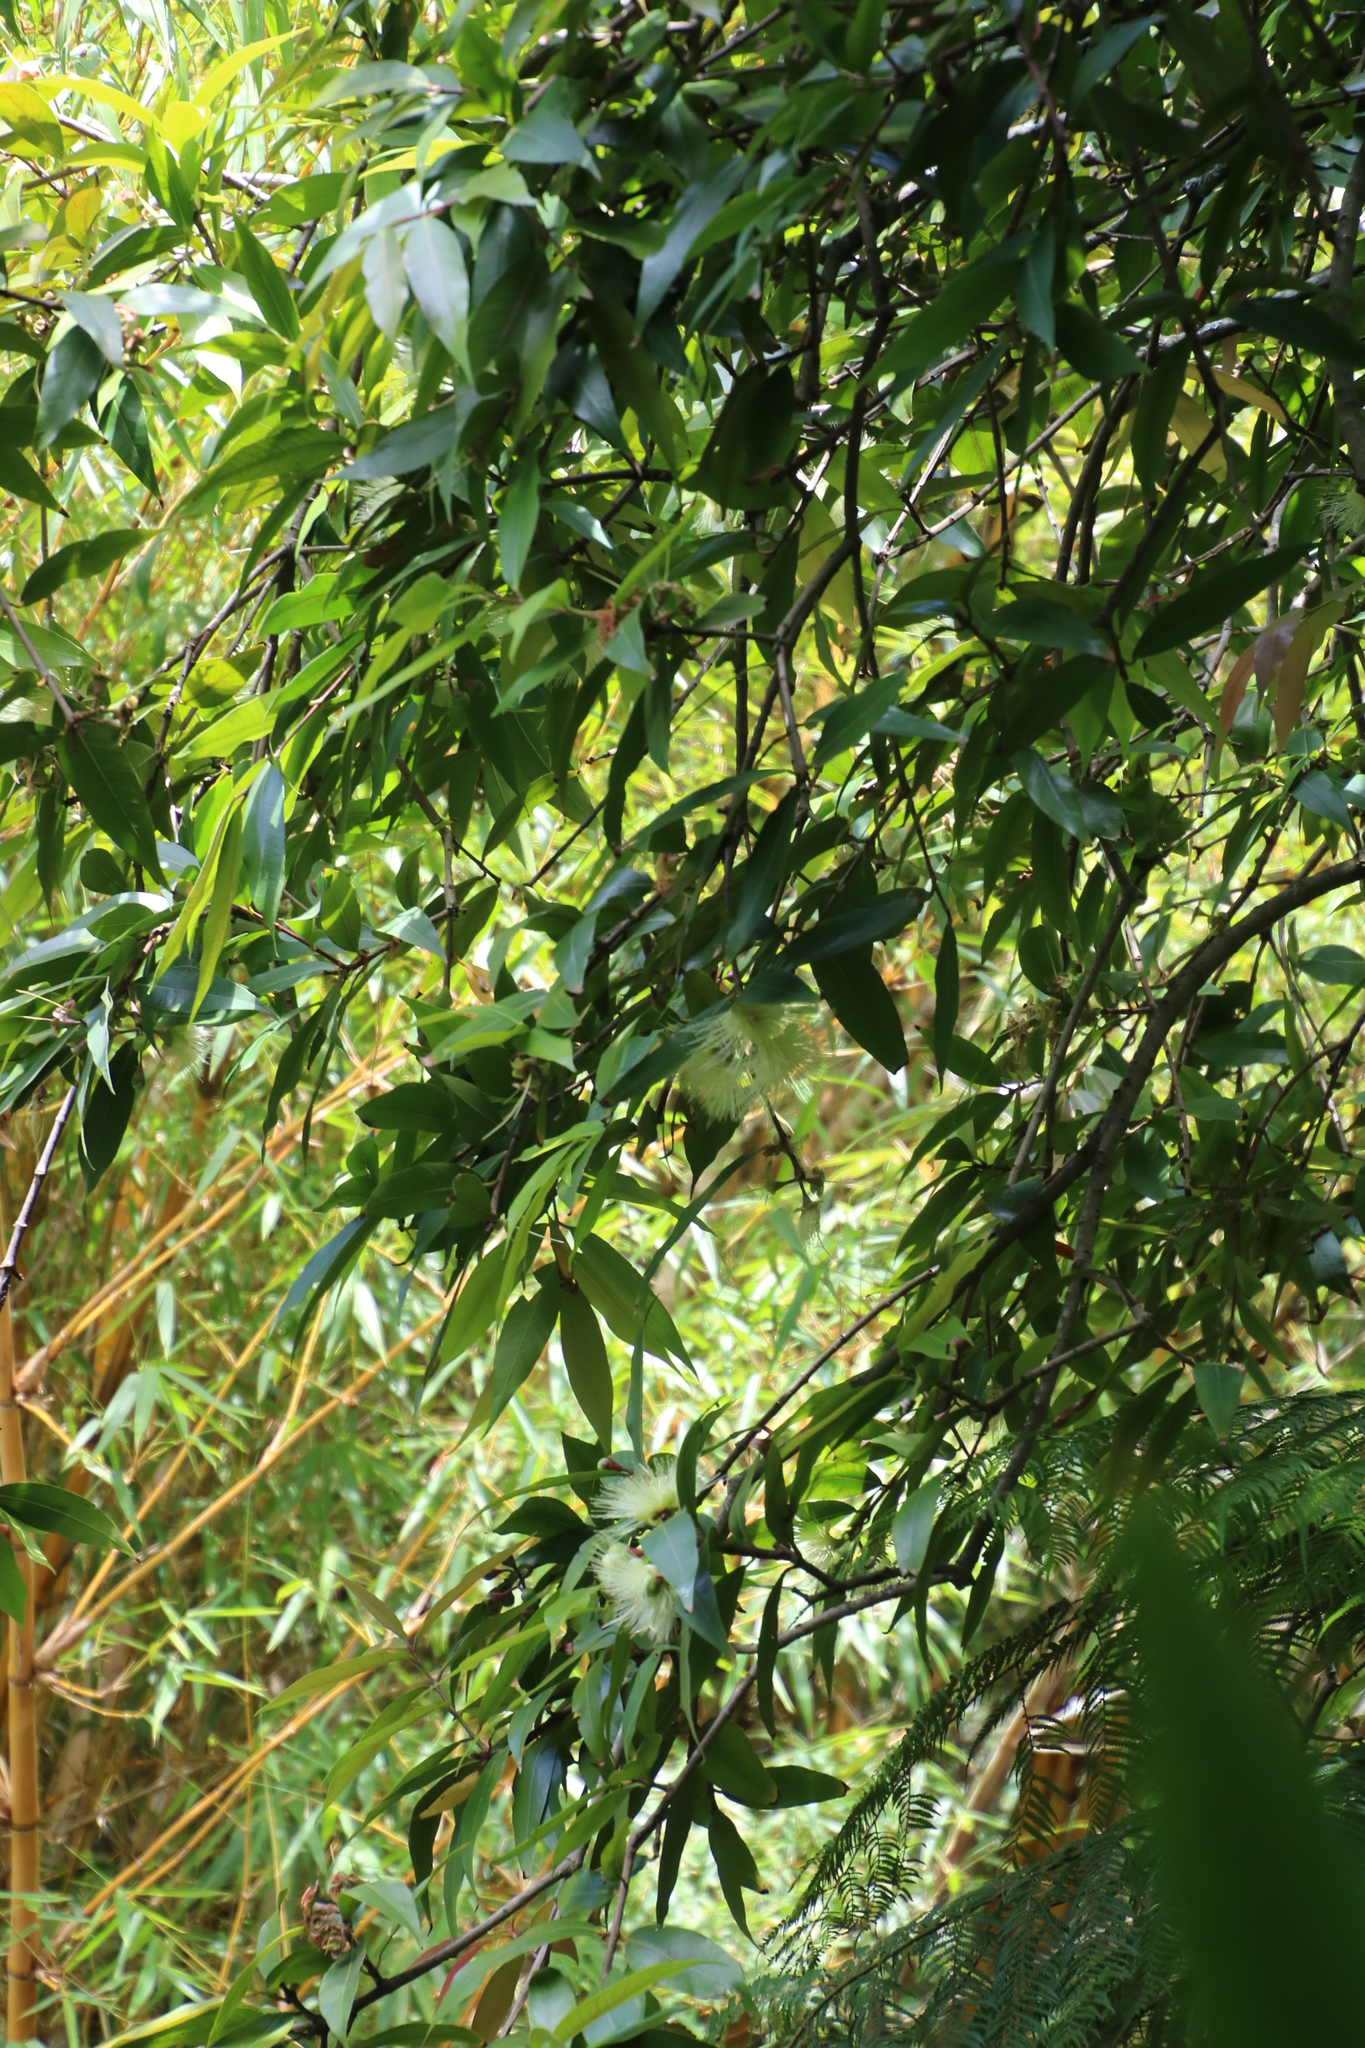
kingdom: Plantae
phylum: Tracheophyta
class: Magnoliopsida
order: Myrtales
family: Myrtaceae
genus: Syzygium
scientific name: Syzygium jambos
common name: Malabar plum
